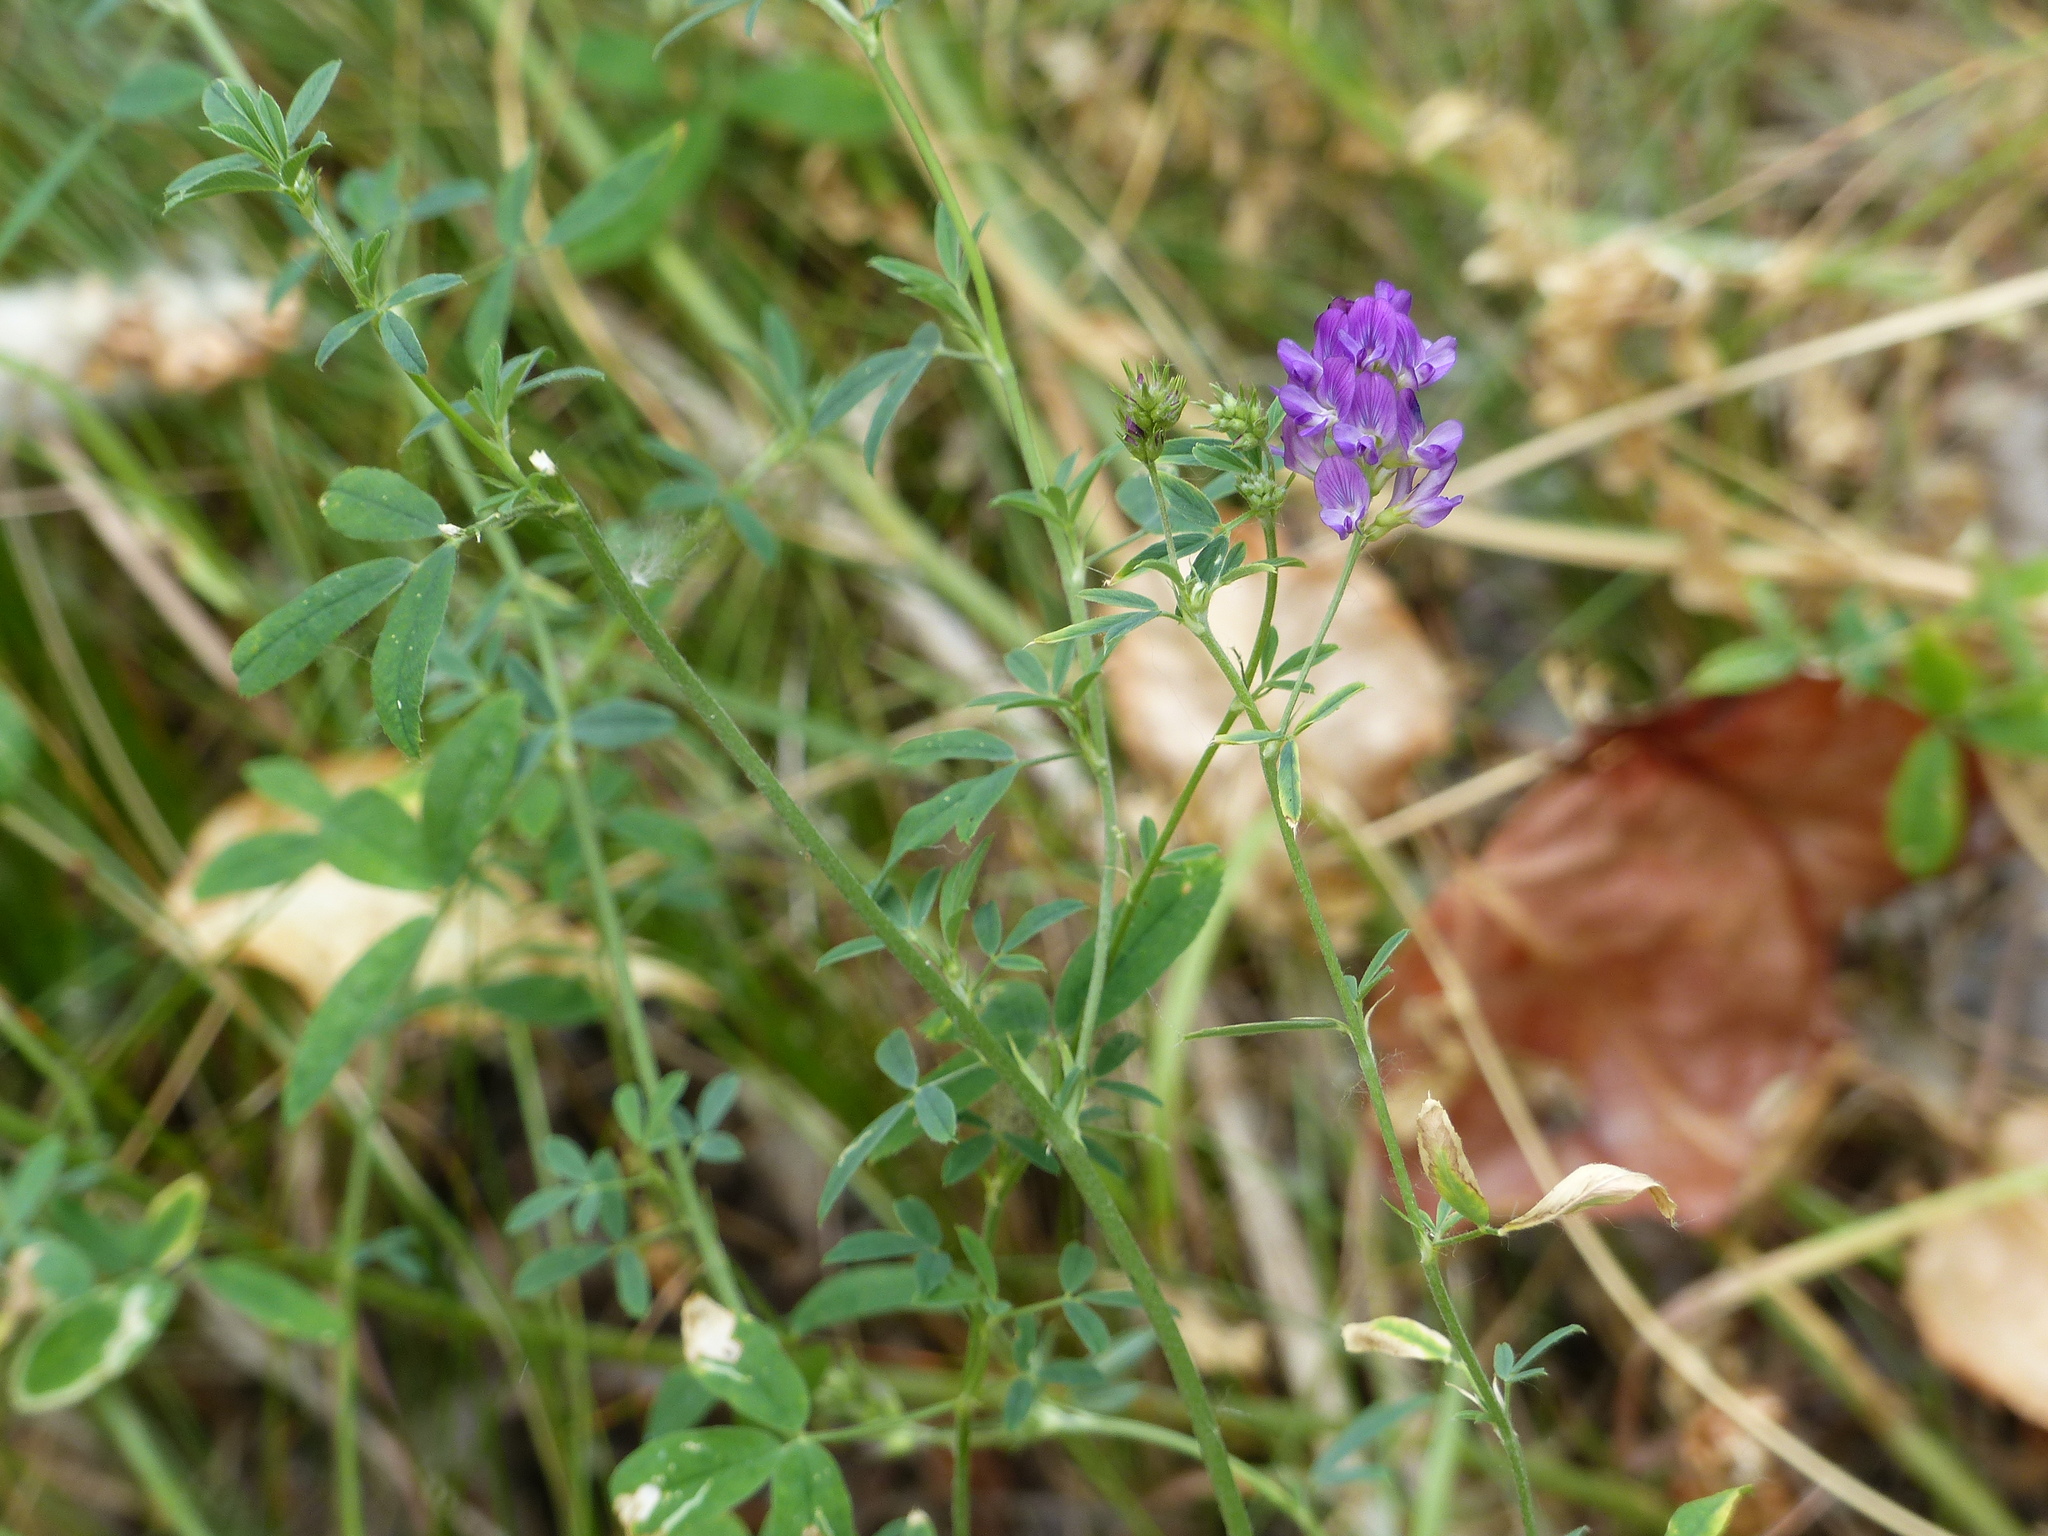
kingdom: Plantae
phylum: Tracheophyta
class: Magnoliopsida
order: Fabales
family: Fabaceae
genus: Medicago
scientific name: Medicago sativa
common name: Alfalfa
